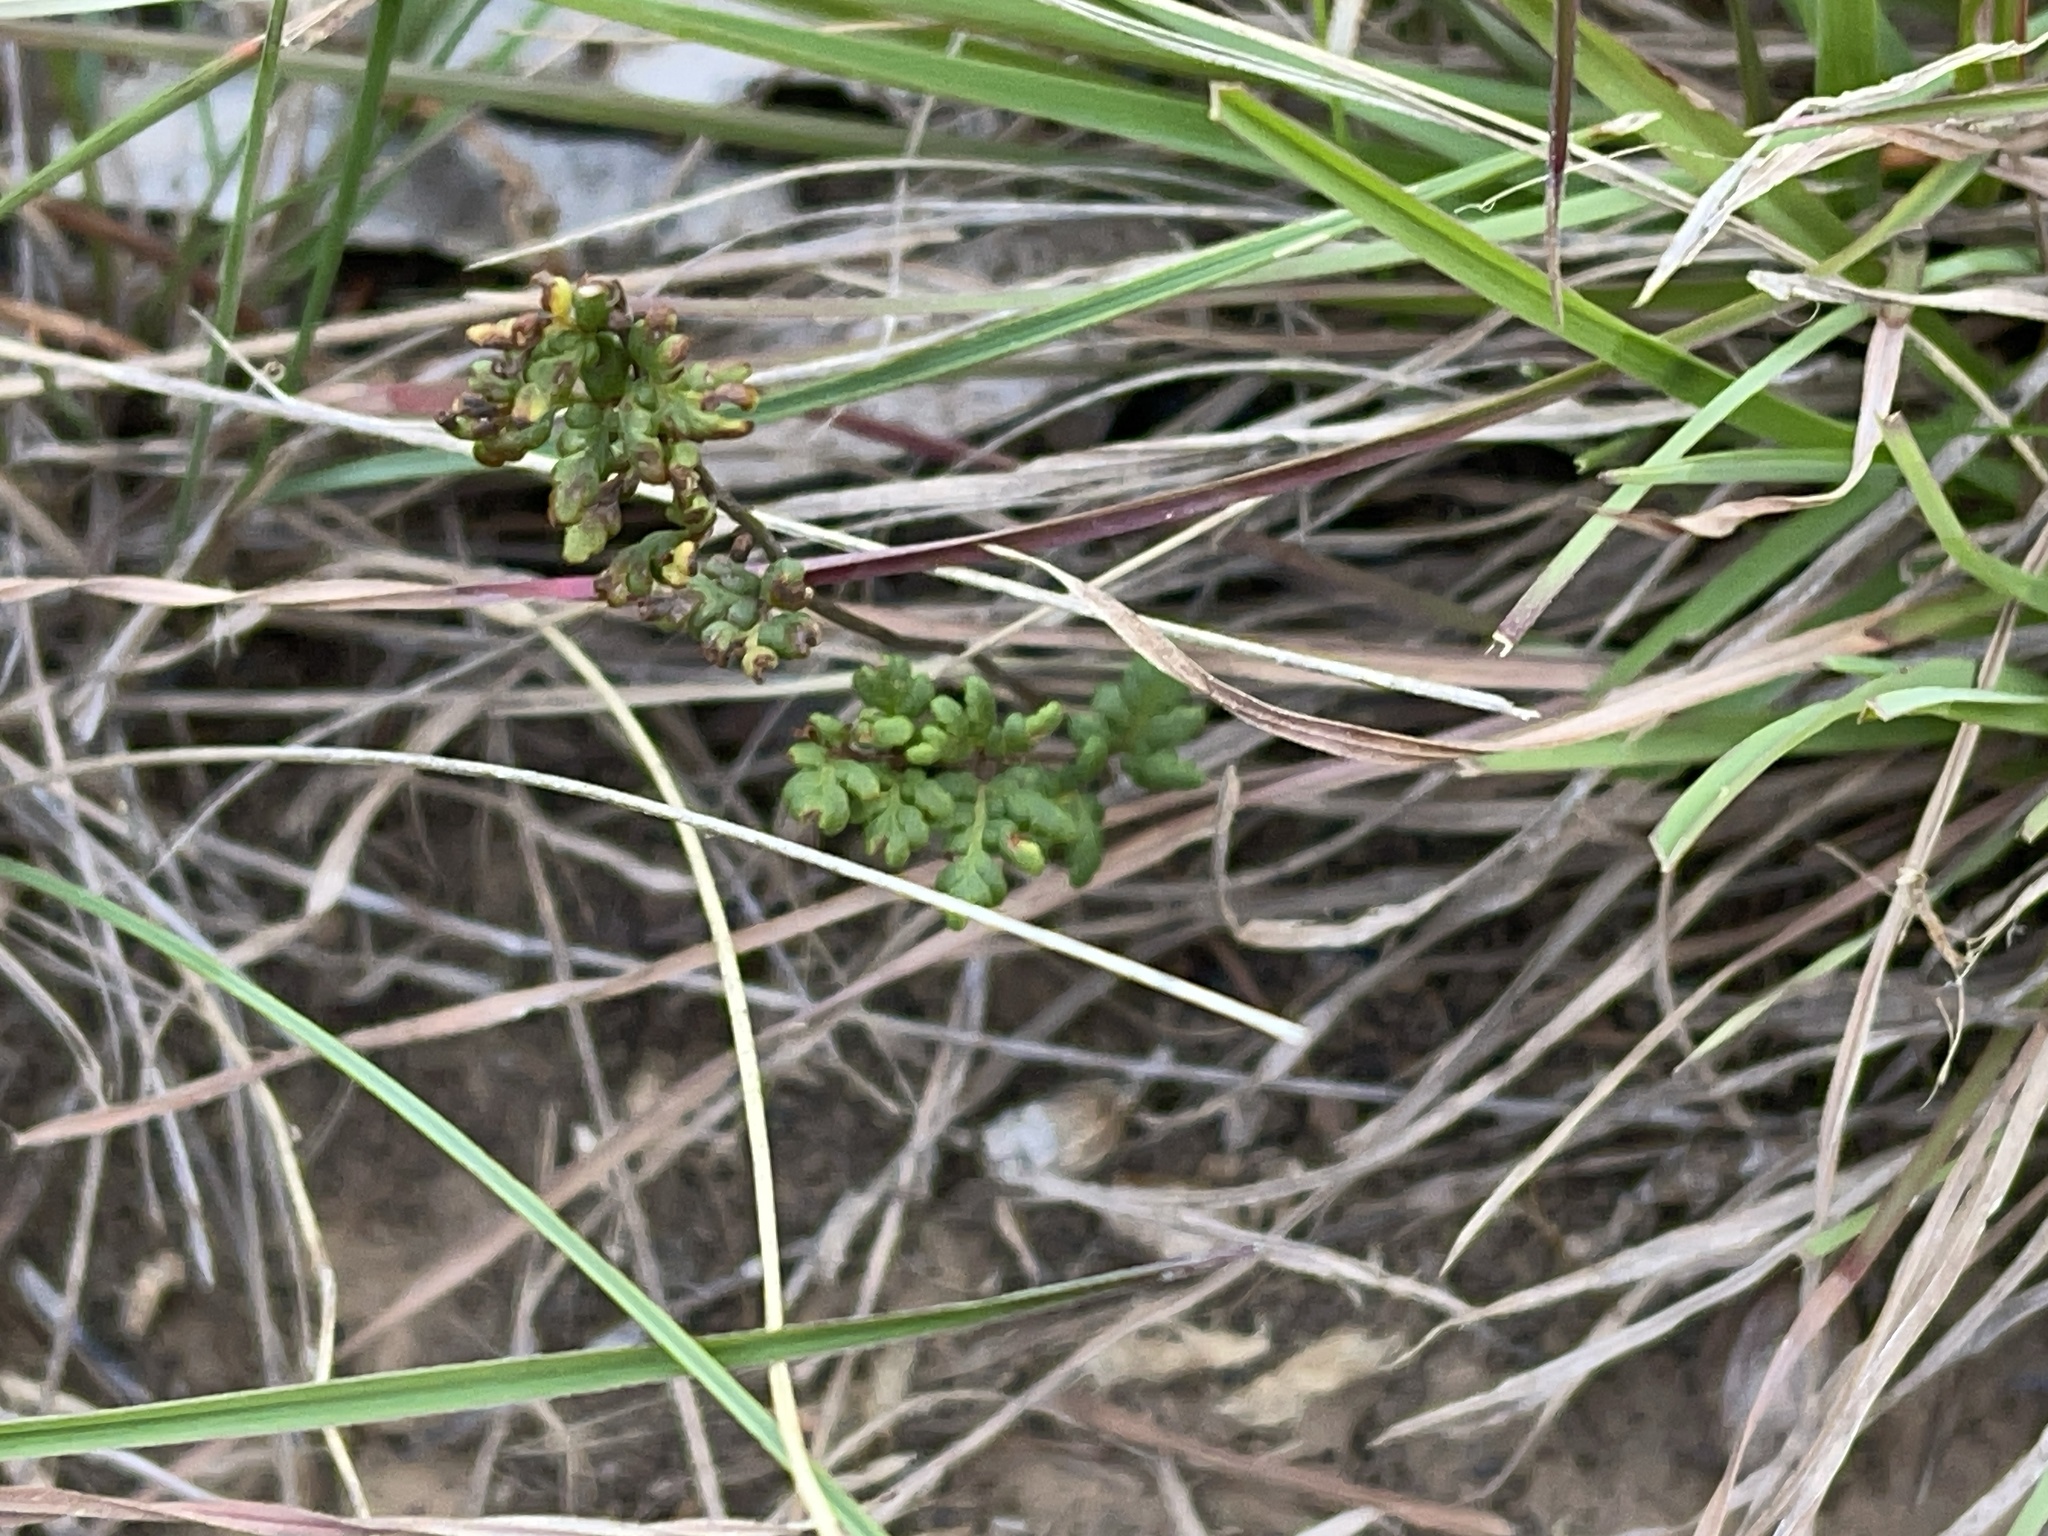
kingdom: Plantae
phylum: Tracheophyta
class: Polypodiopsida
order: Polypodiales
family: Pteridaceae
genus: Cheilanthes
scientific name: Cheilanthes sieberi
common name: Mulga fern
